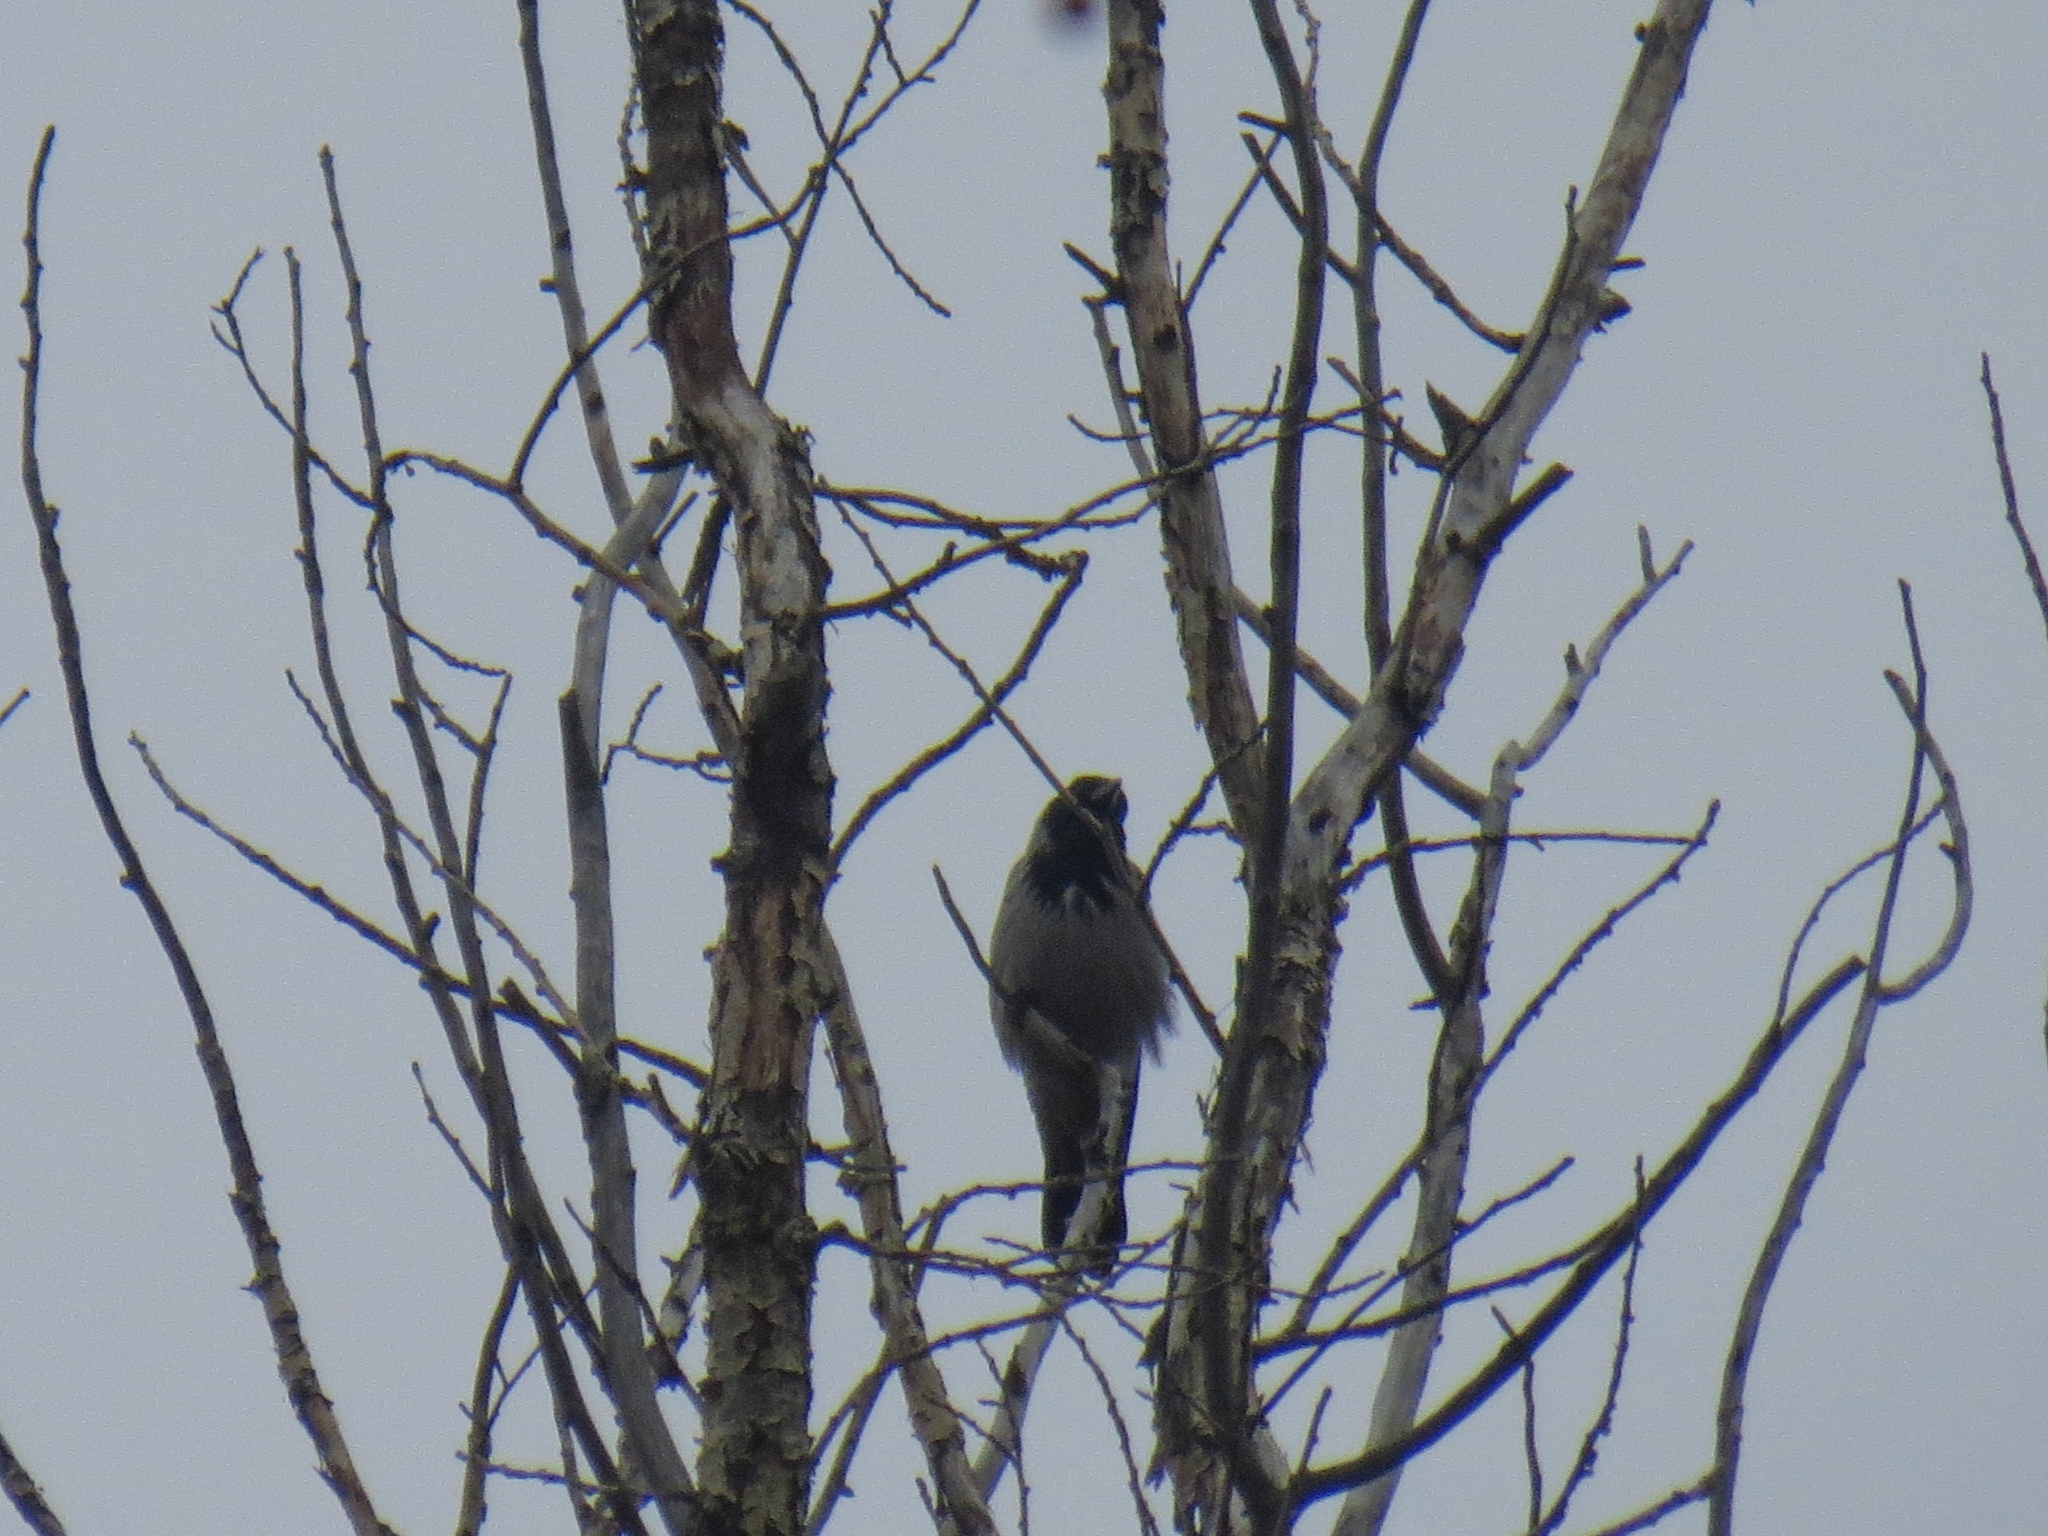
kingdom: Animalia
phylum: Chordata
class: Aves
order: Passeriformes
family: Corvidae
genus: Corvus
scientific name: Corvus cornix
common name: Hooded crow
